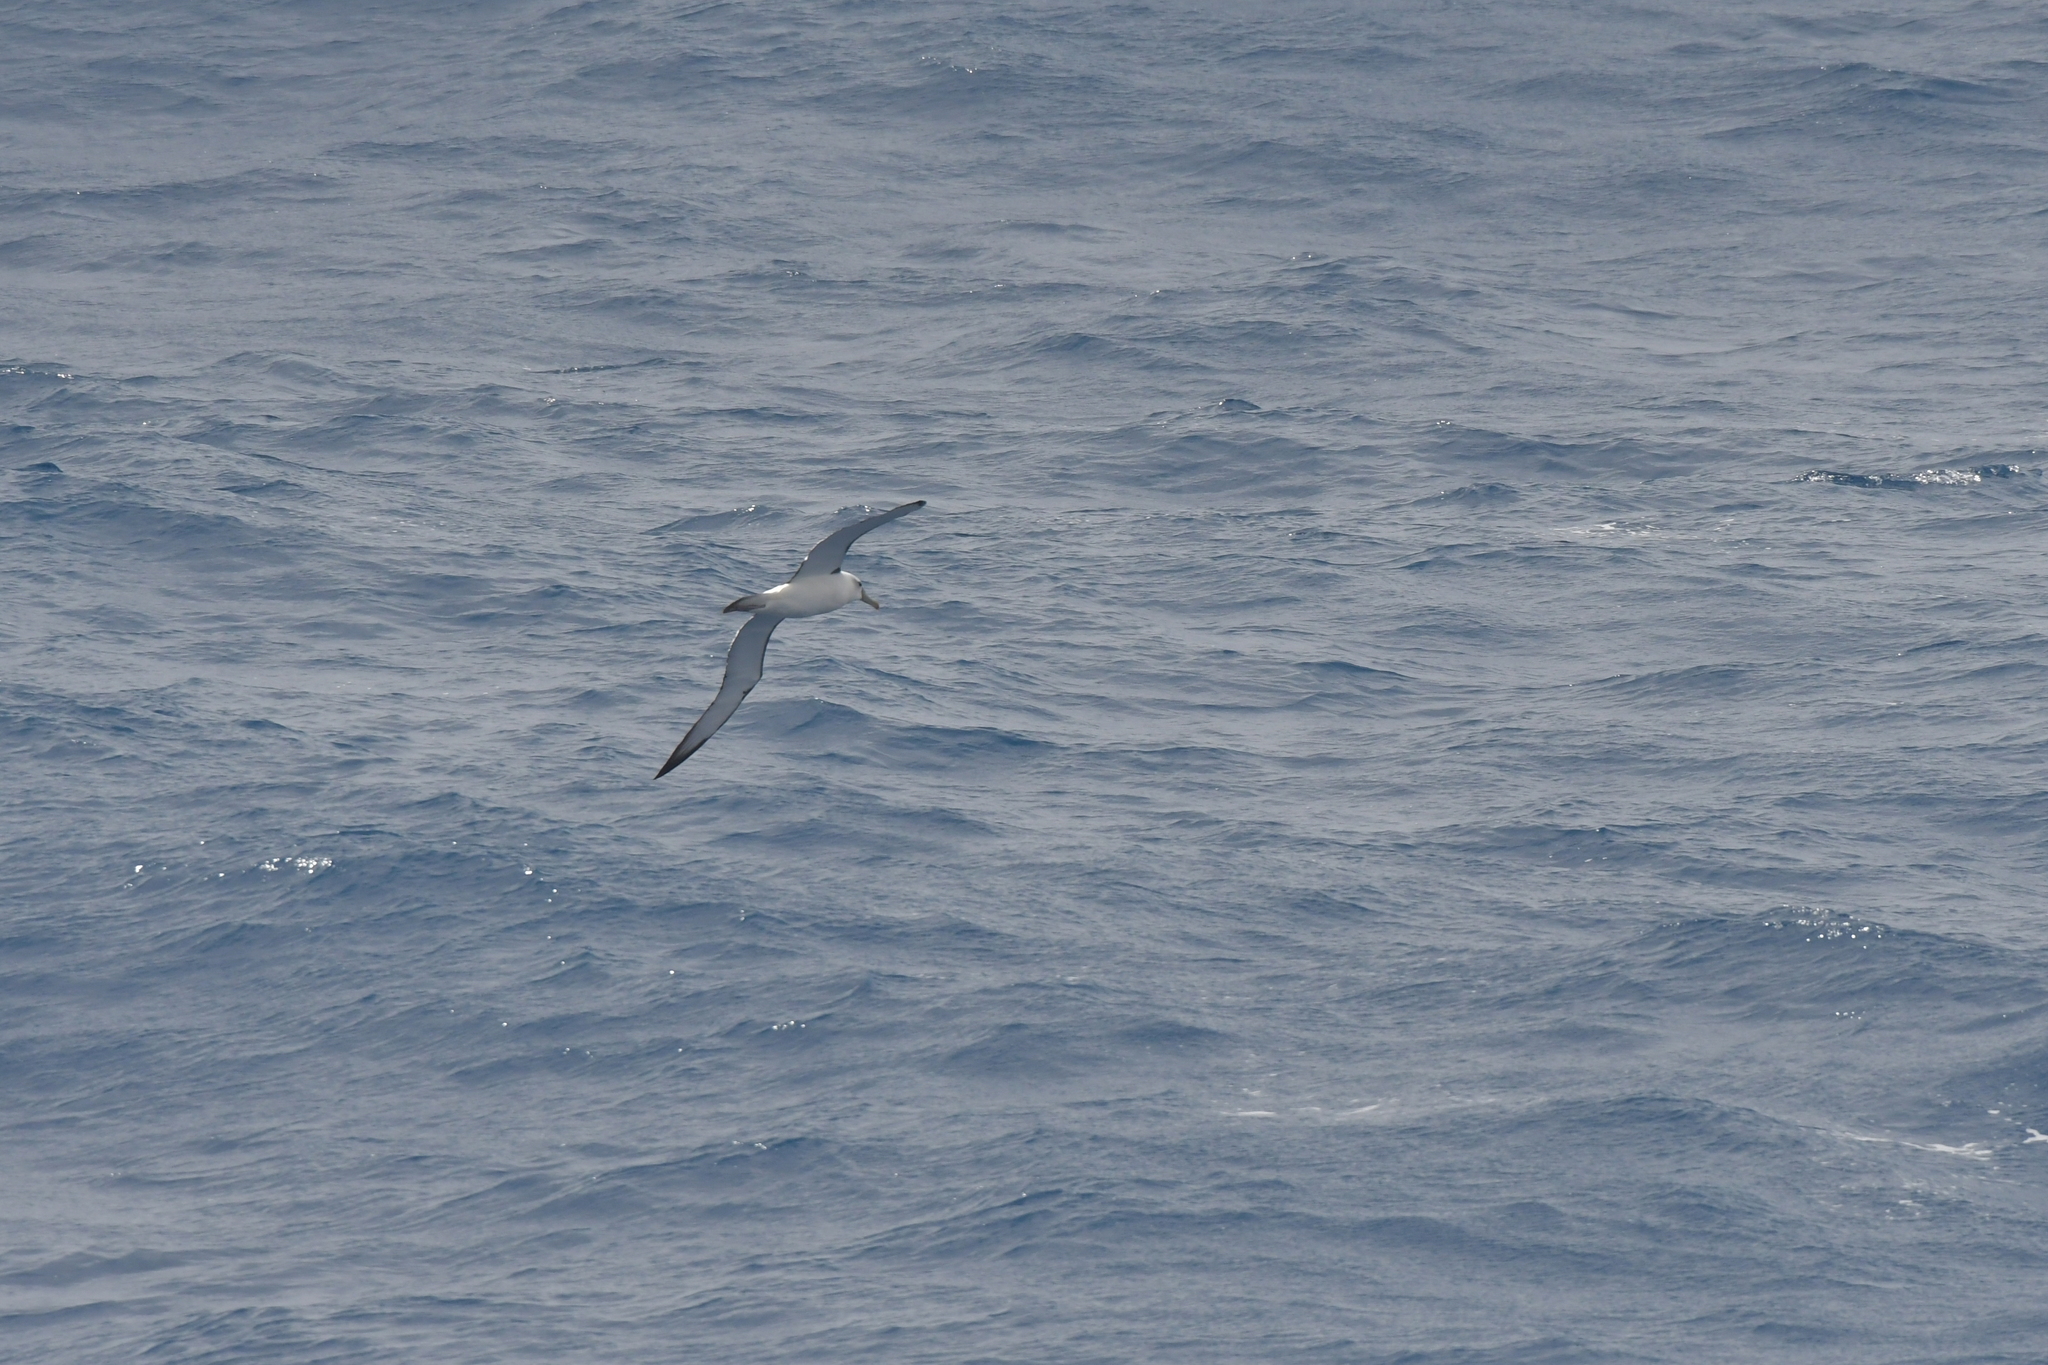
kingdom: Animalia
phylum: Chordata
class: Aves
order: Procellariiformes
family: Diomedeidae
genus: Thalassarche
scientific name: Thalassarche cauta
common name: Shy albatross
